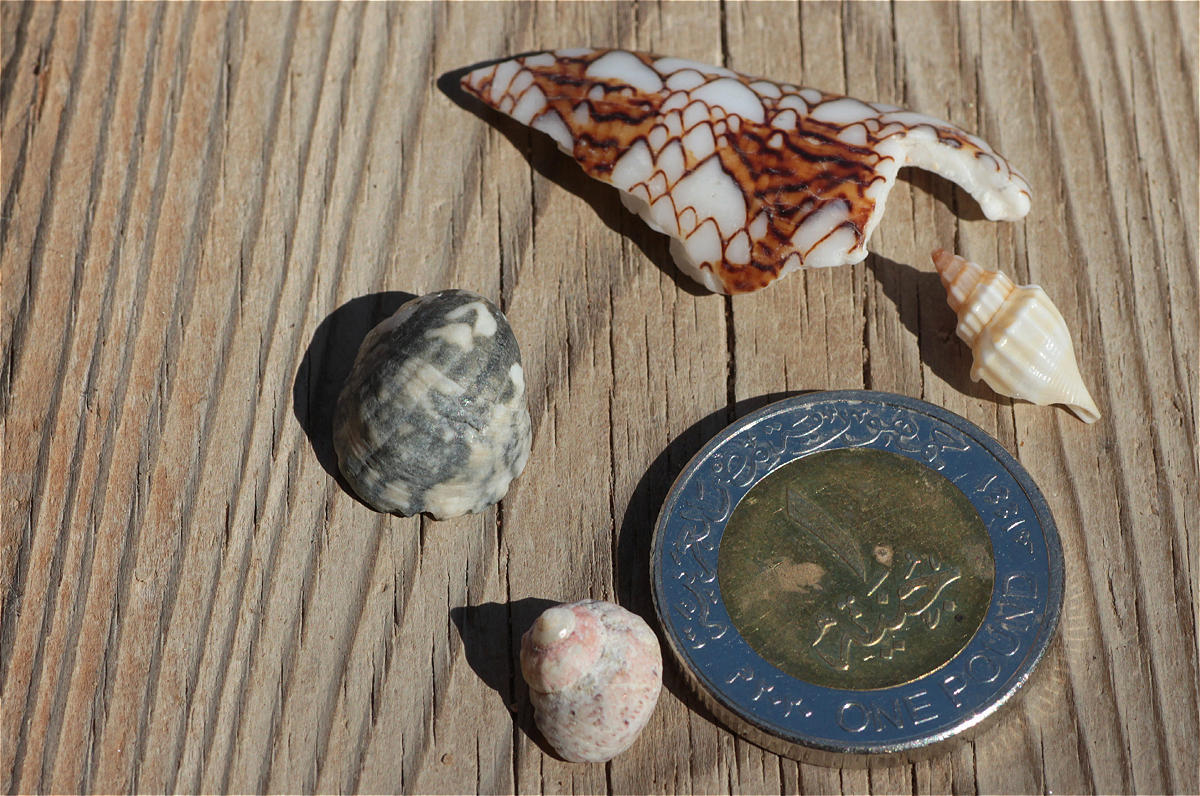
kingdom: Animalia
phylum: Mollusca
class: Gastropoda
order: Cycloneritida
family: Neritidae
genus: Nerita
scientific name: Nerita albicilla
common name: Blotched nerite
